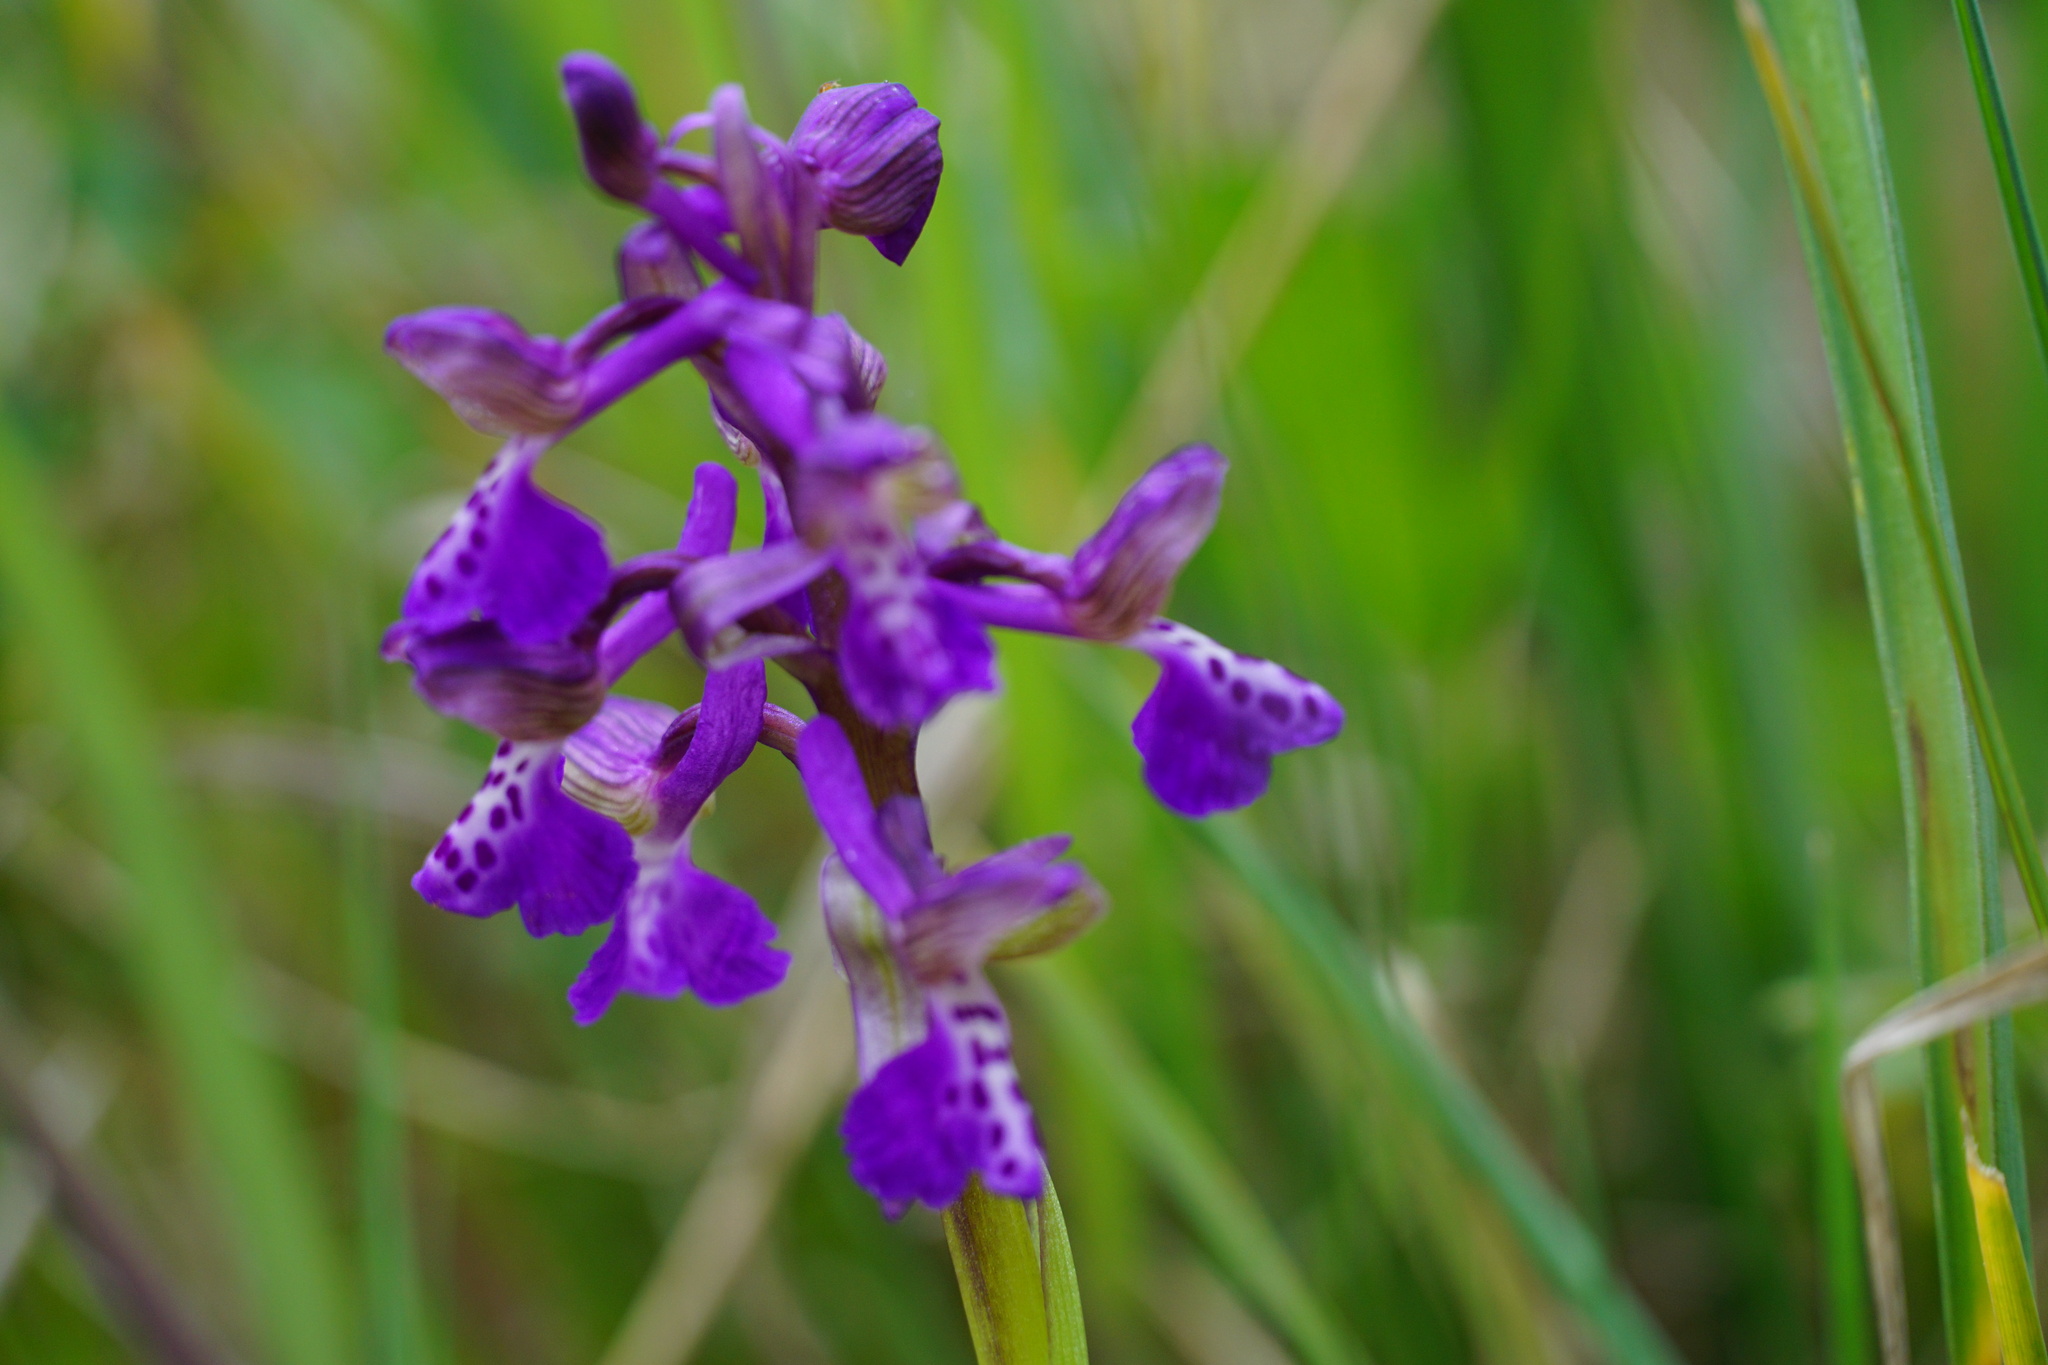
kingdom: Plantae
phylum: Tracheophyta
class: Liliopsida
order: Asparagales
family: Orchidaceae
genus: Anacamptis
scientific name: Anacamptis morio
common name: Green-winged orchid
